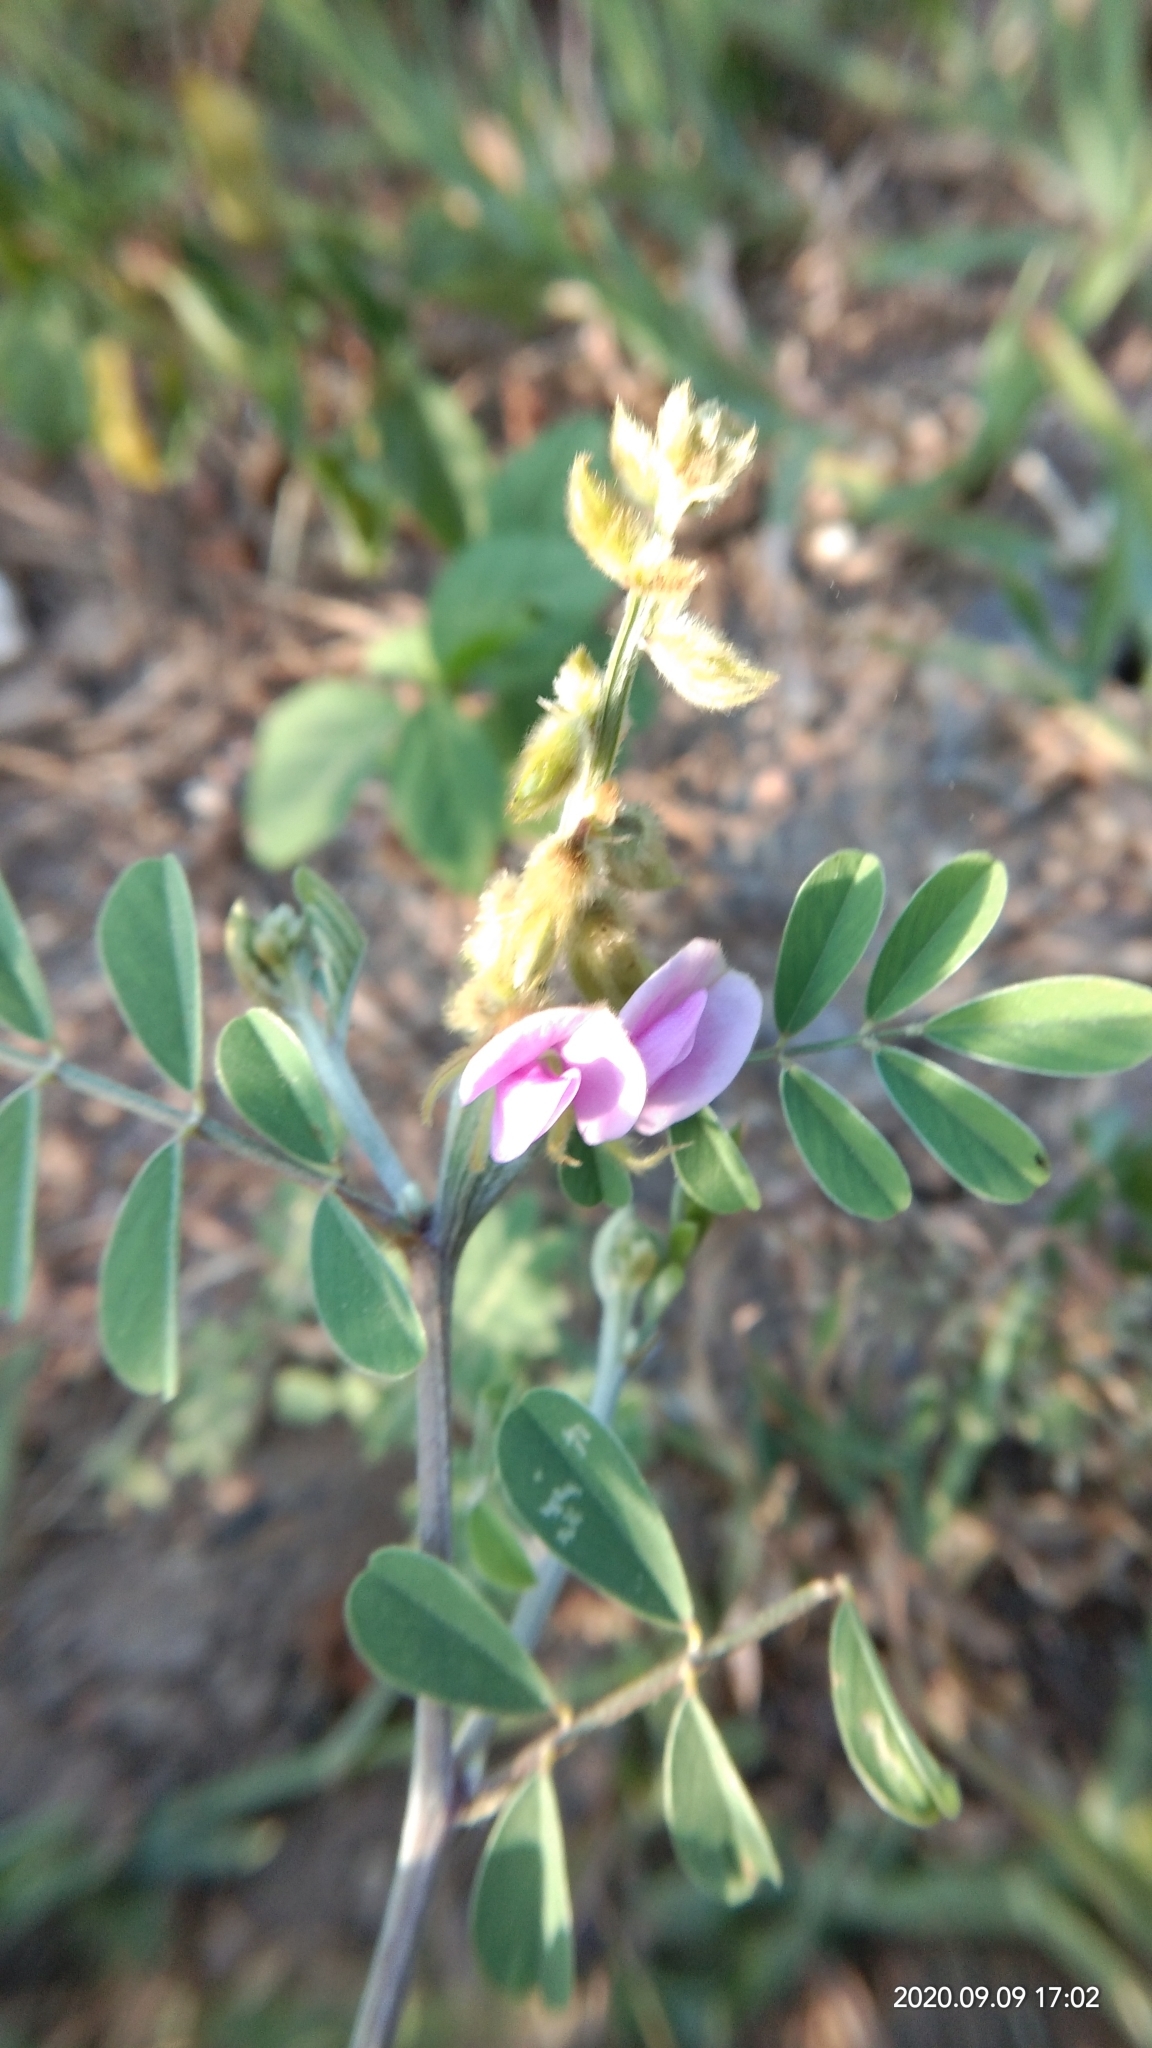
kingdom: Plantae
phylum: Tracheophyta
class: Magnoliopsida
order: Fabales
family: Fabaceae
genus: Tephrosia
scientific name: Tephrosia purpurea
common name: Fishpoison
